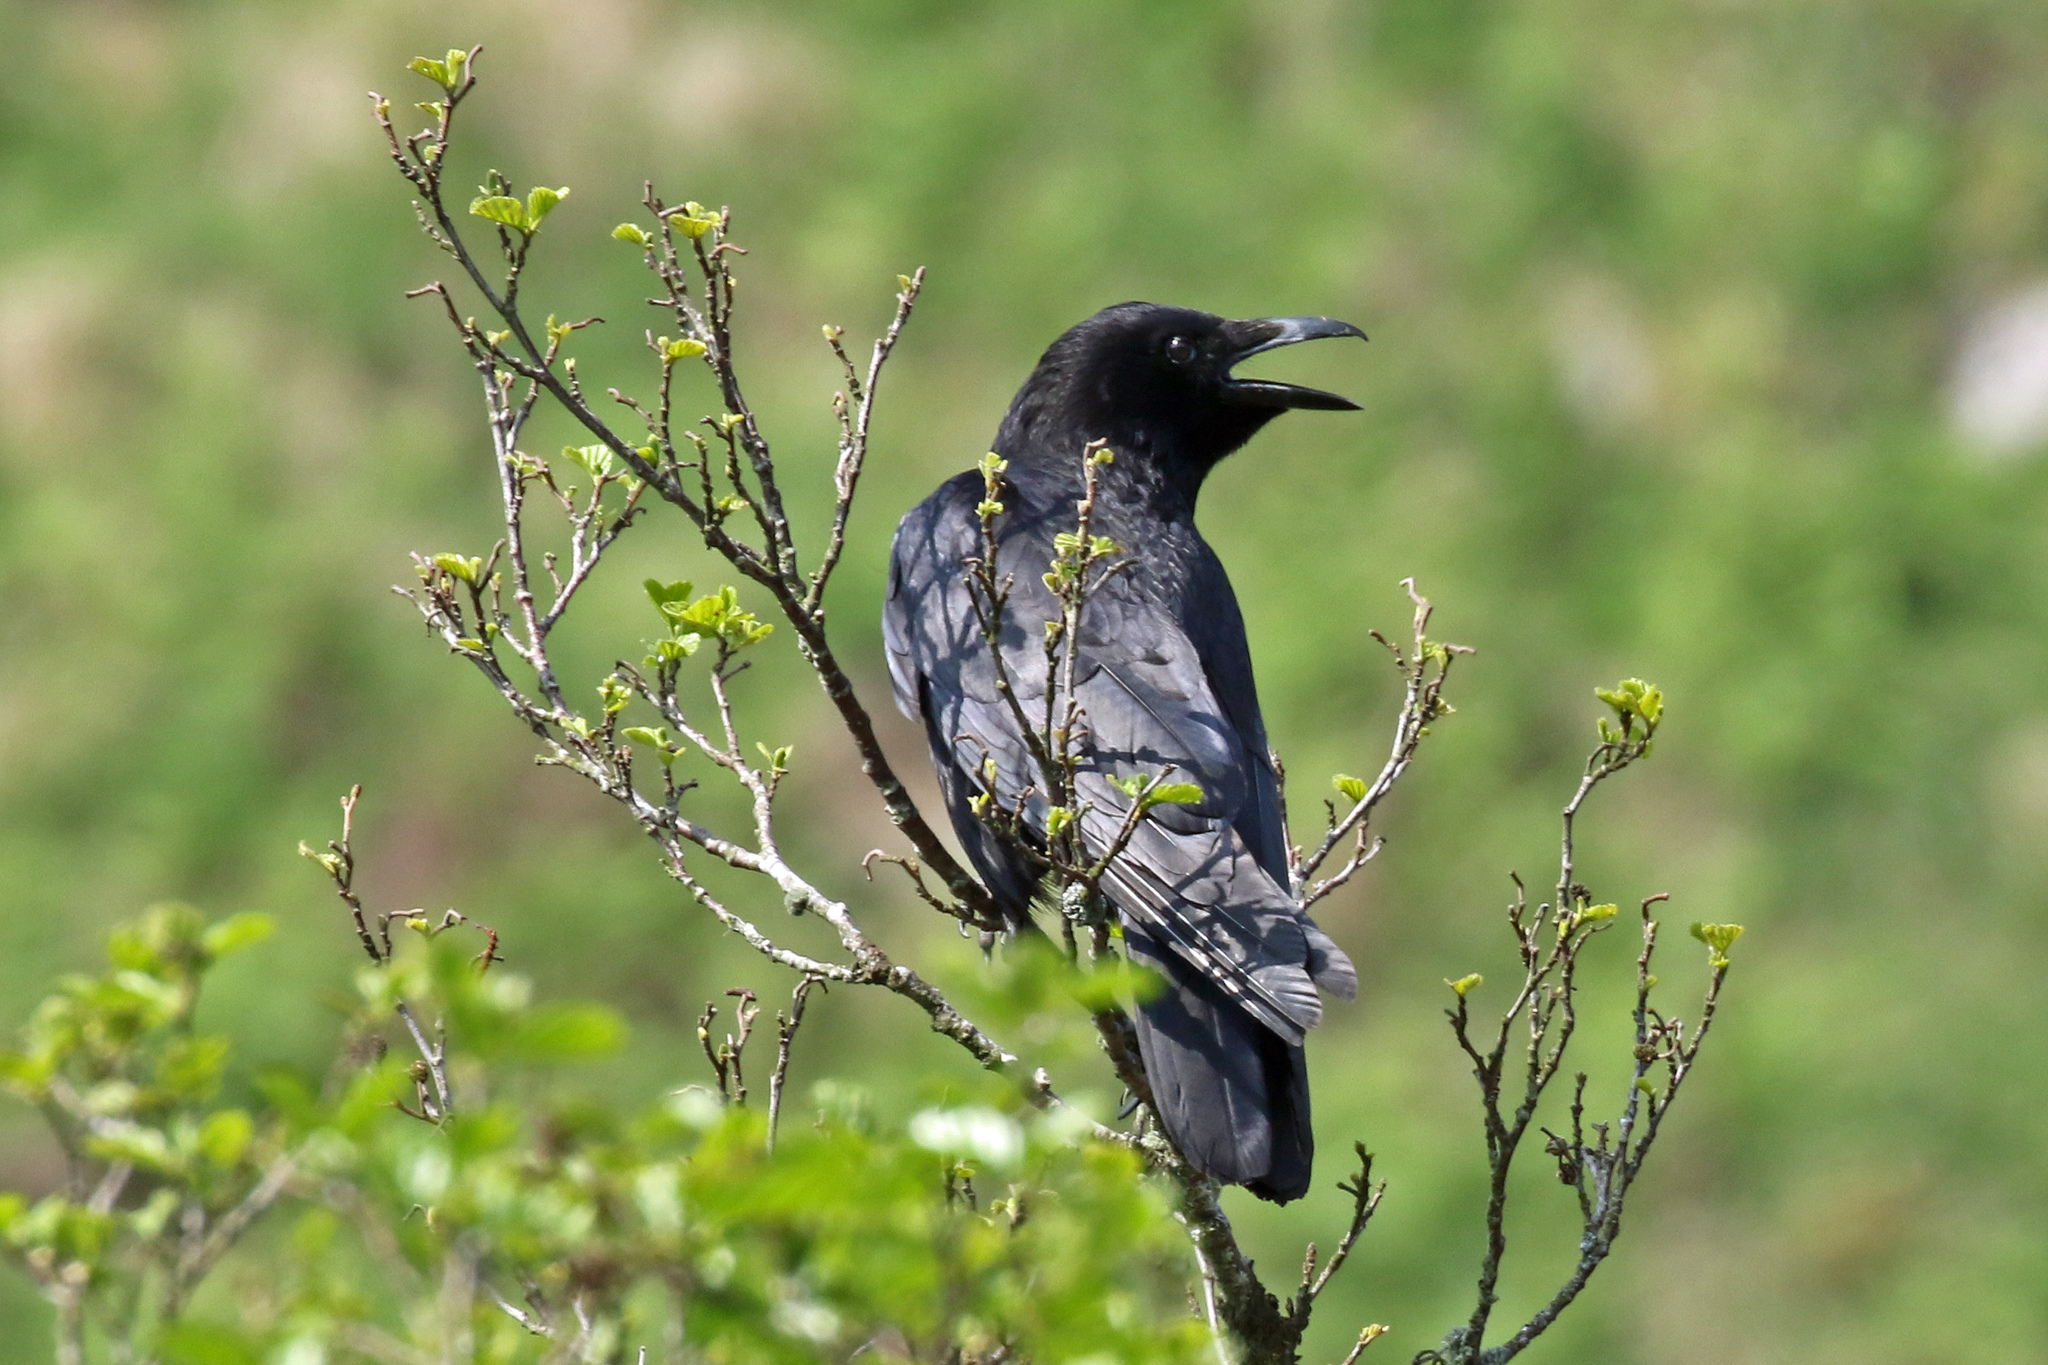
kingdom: Animalia
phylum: Chordata
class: Aves
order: Passeriformes
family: Corvidae
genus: Corvus
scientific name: Corvus corax
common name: Common raven
